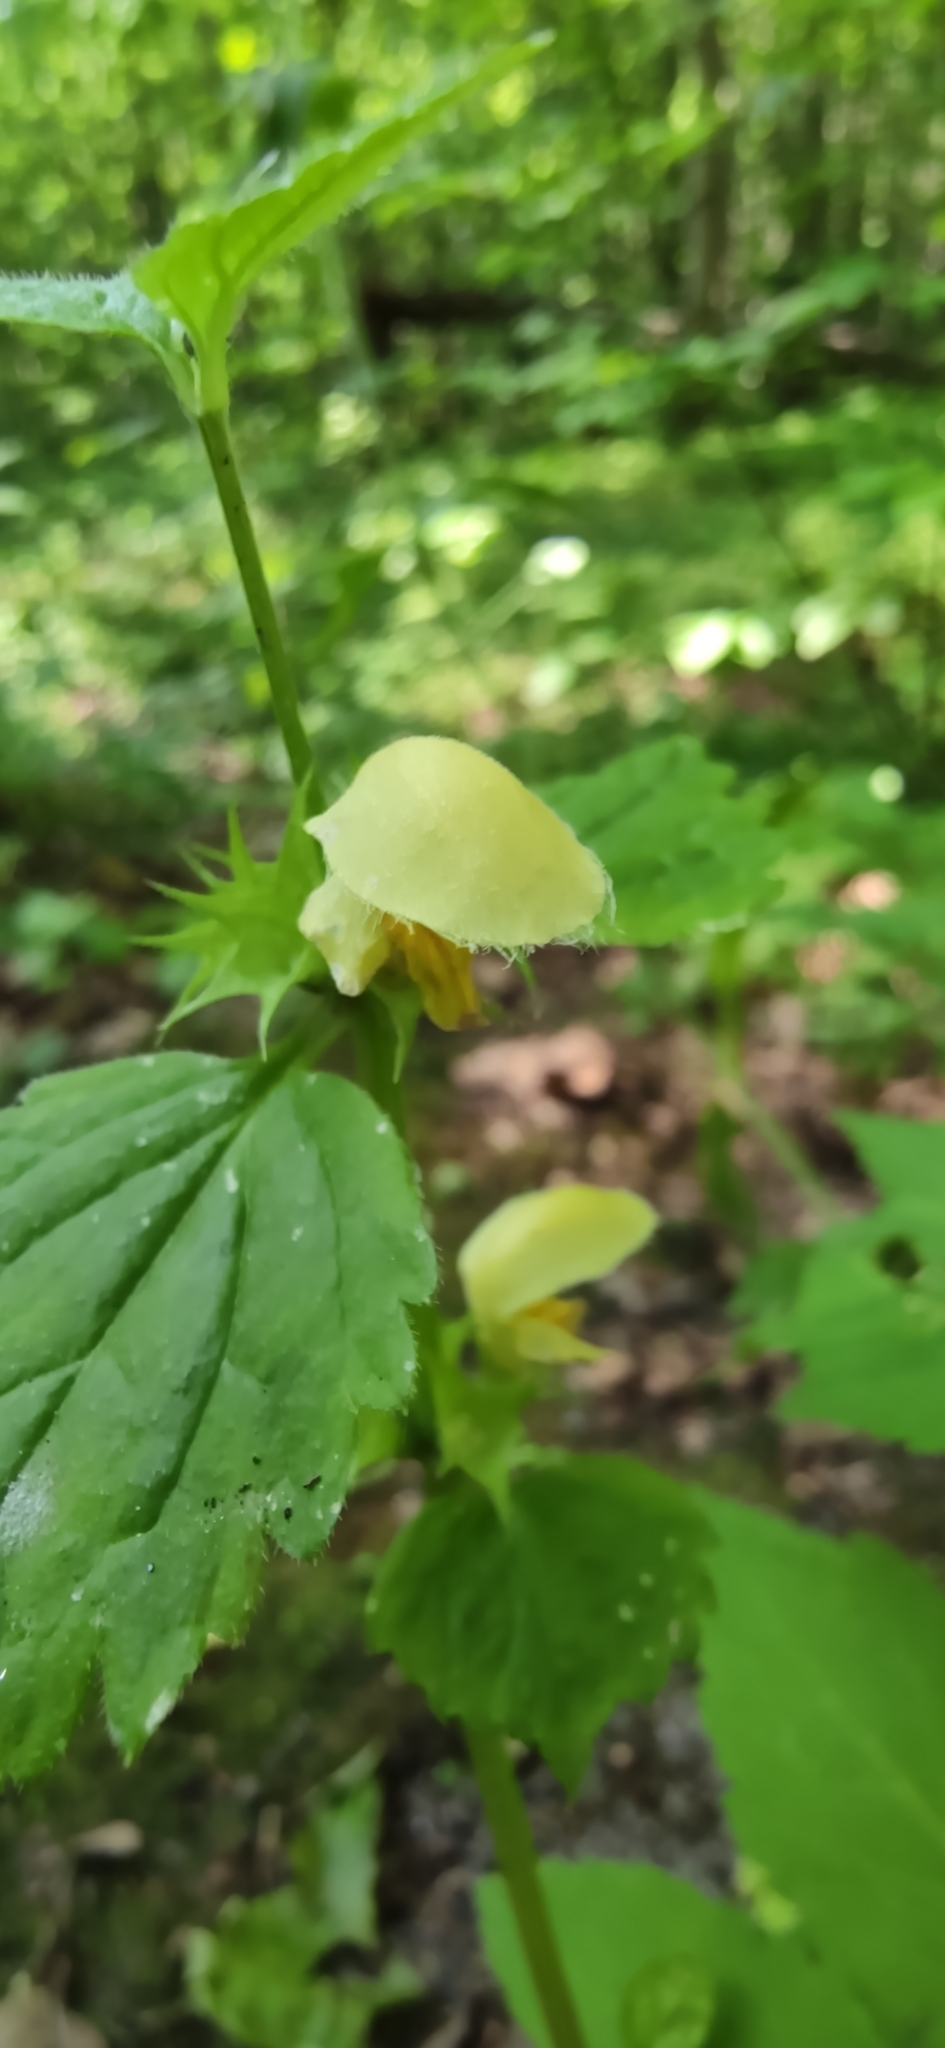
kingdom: Plantae
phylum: Tracheophyta
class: Magnoliopsida
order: Lamiales
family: Lamiaceae
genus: Lamium
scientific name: Lamium galeobdolon
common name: Yellow archangel
